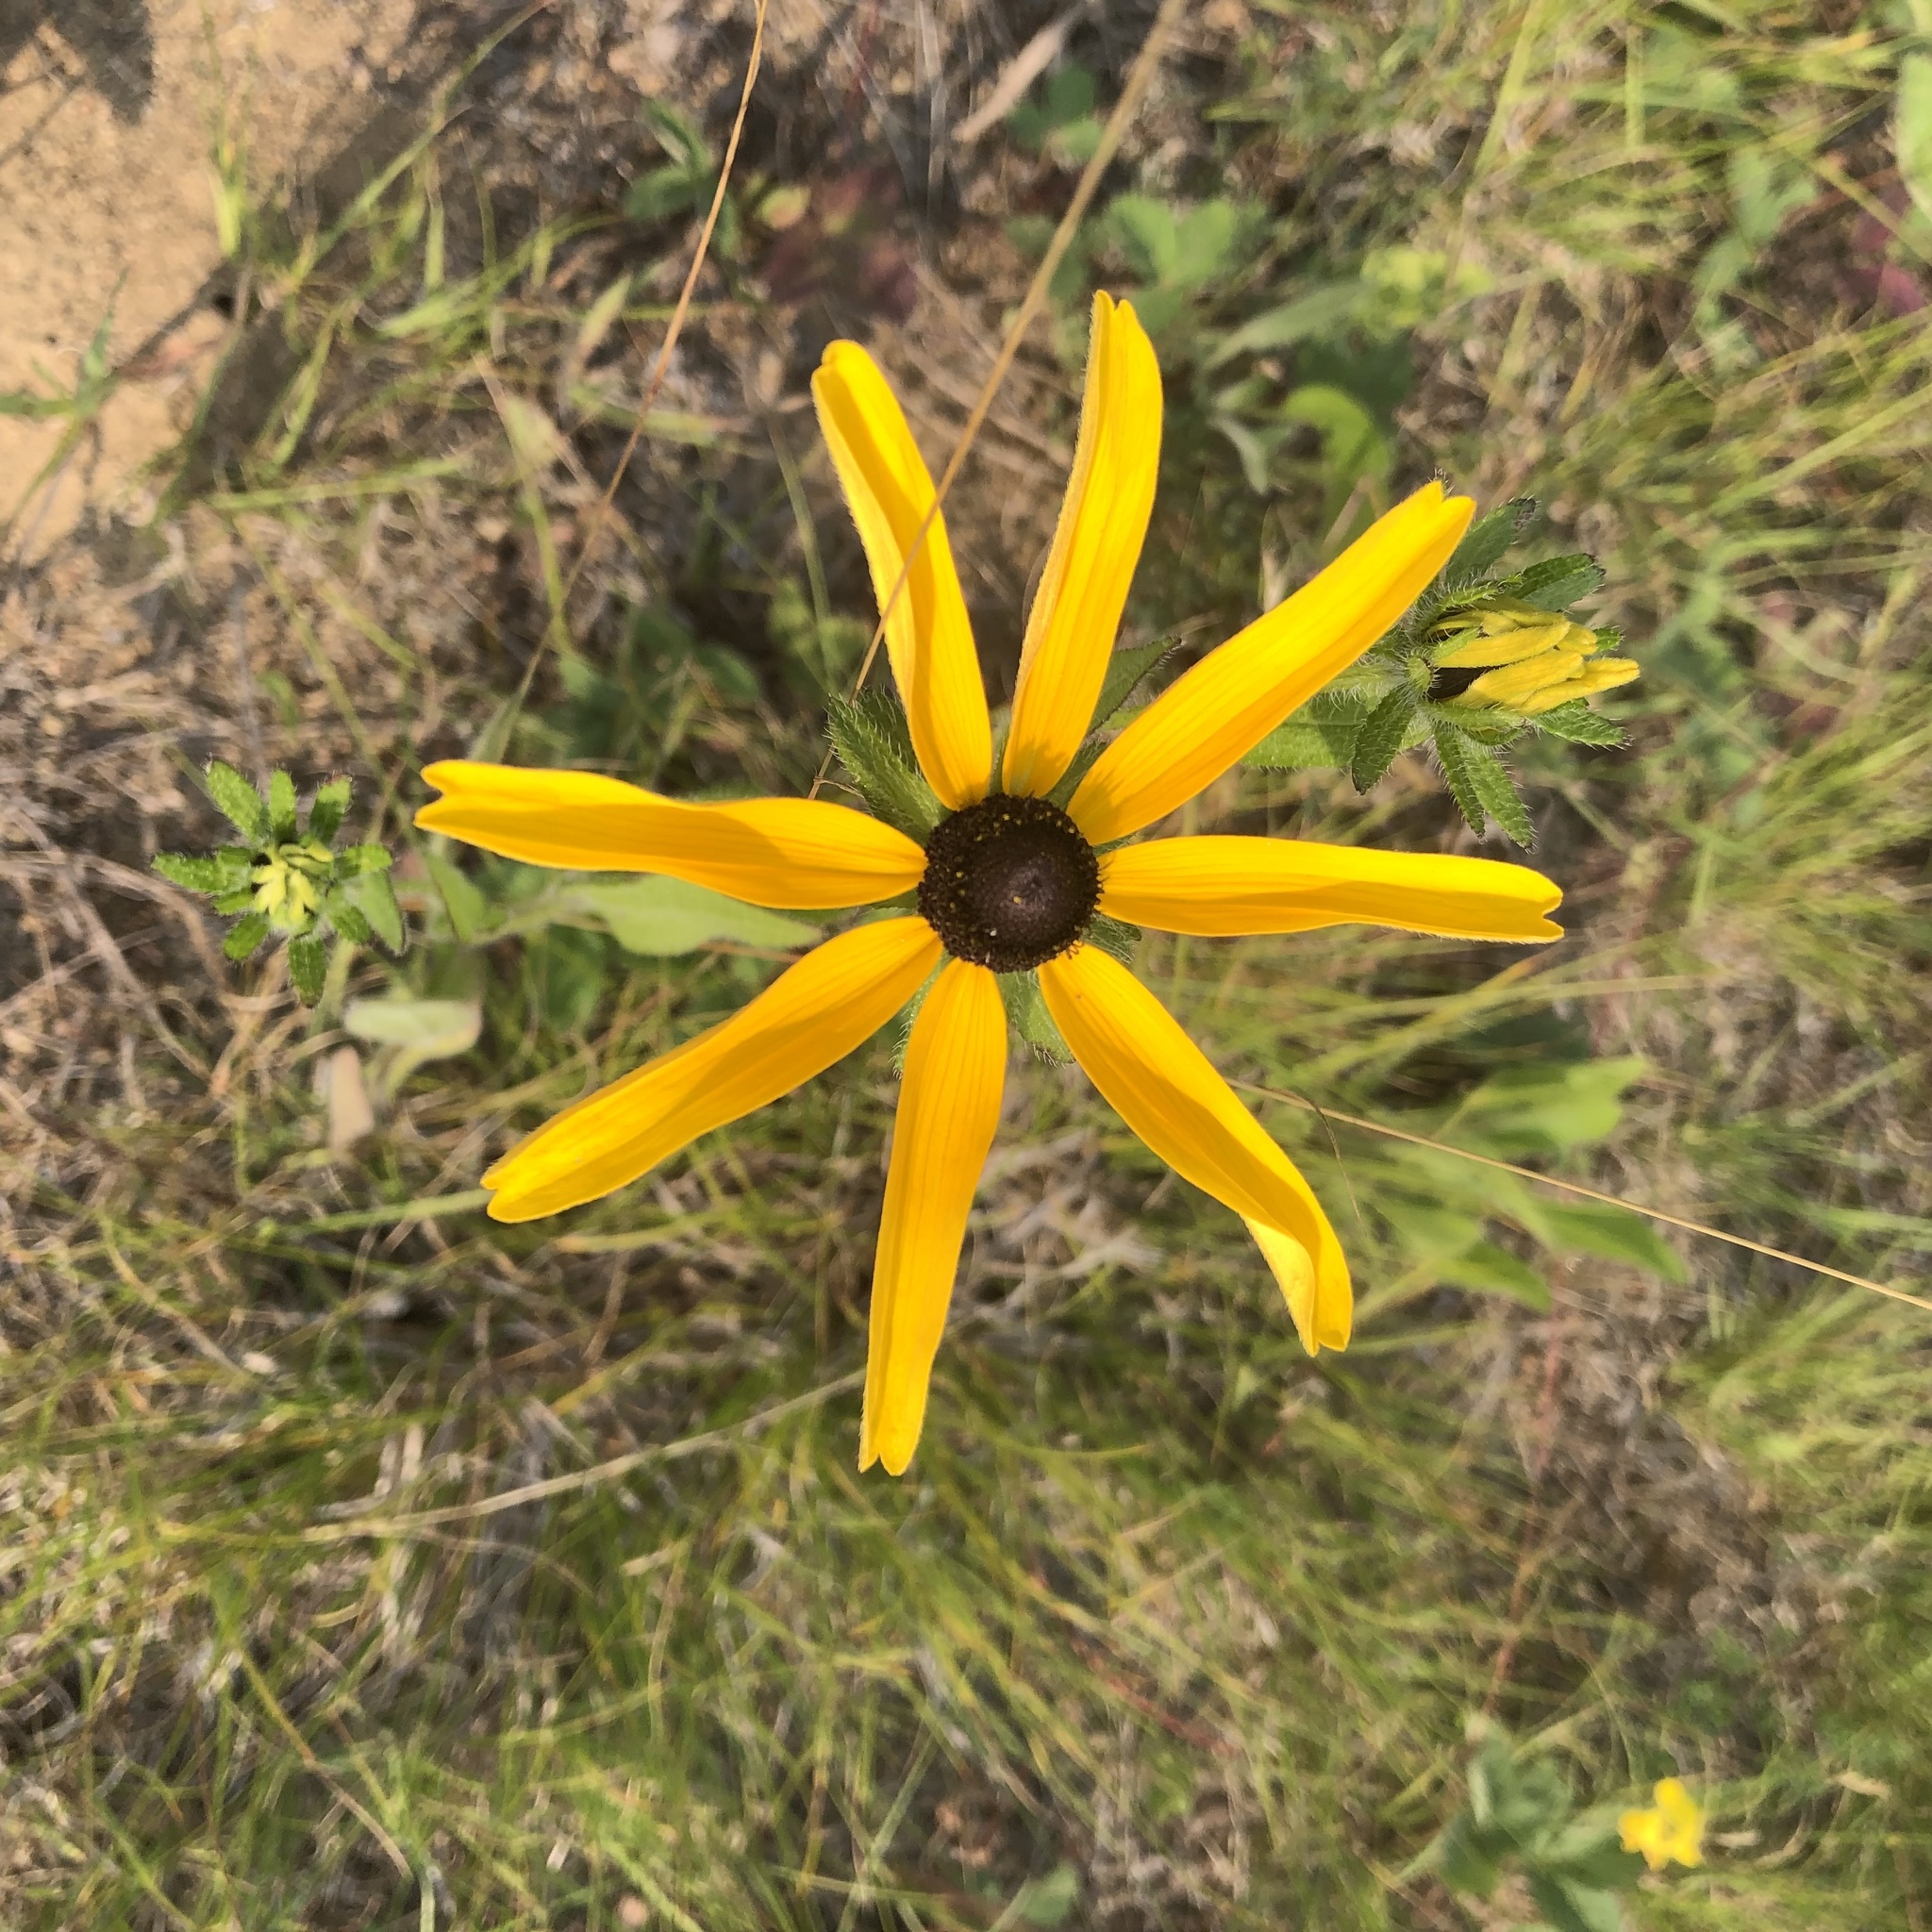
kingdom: Plantae
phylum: Tracheophyta
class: Magnoliopsida
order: Asterales
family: Asteraceae
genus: Rudbeckia
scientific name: Rudbeckia hirta
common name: Black-eyed-susan
